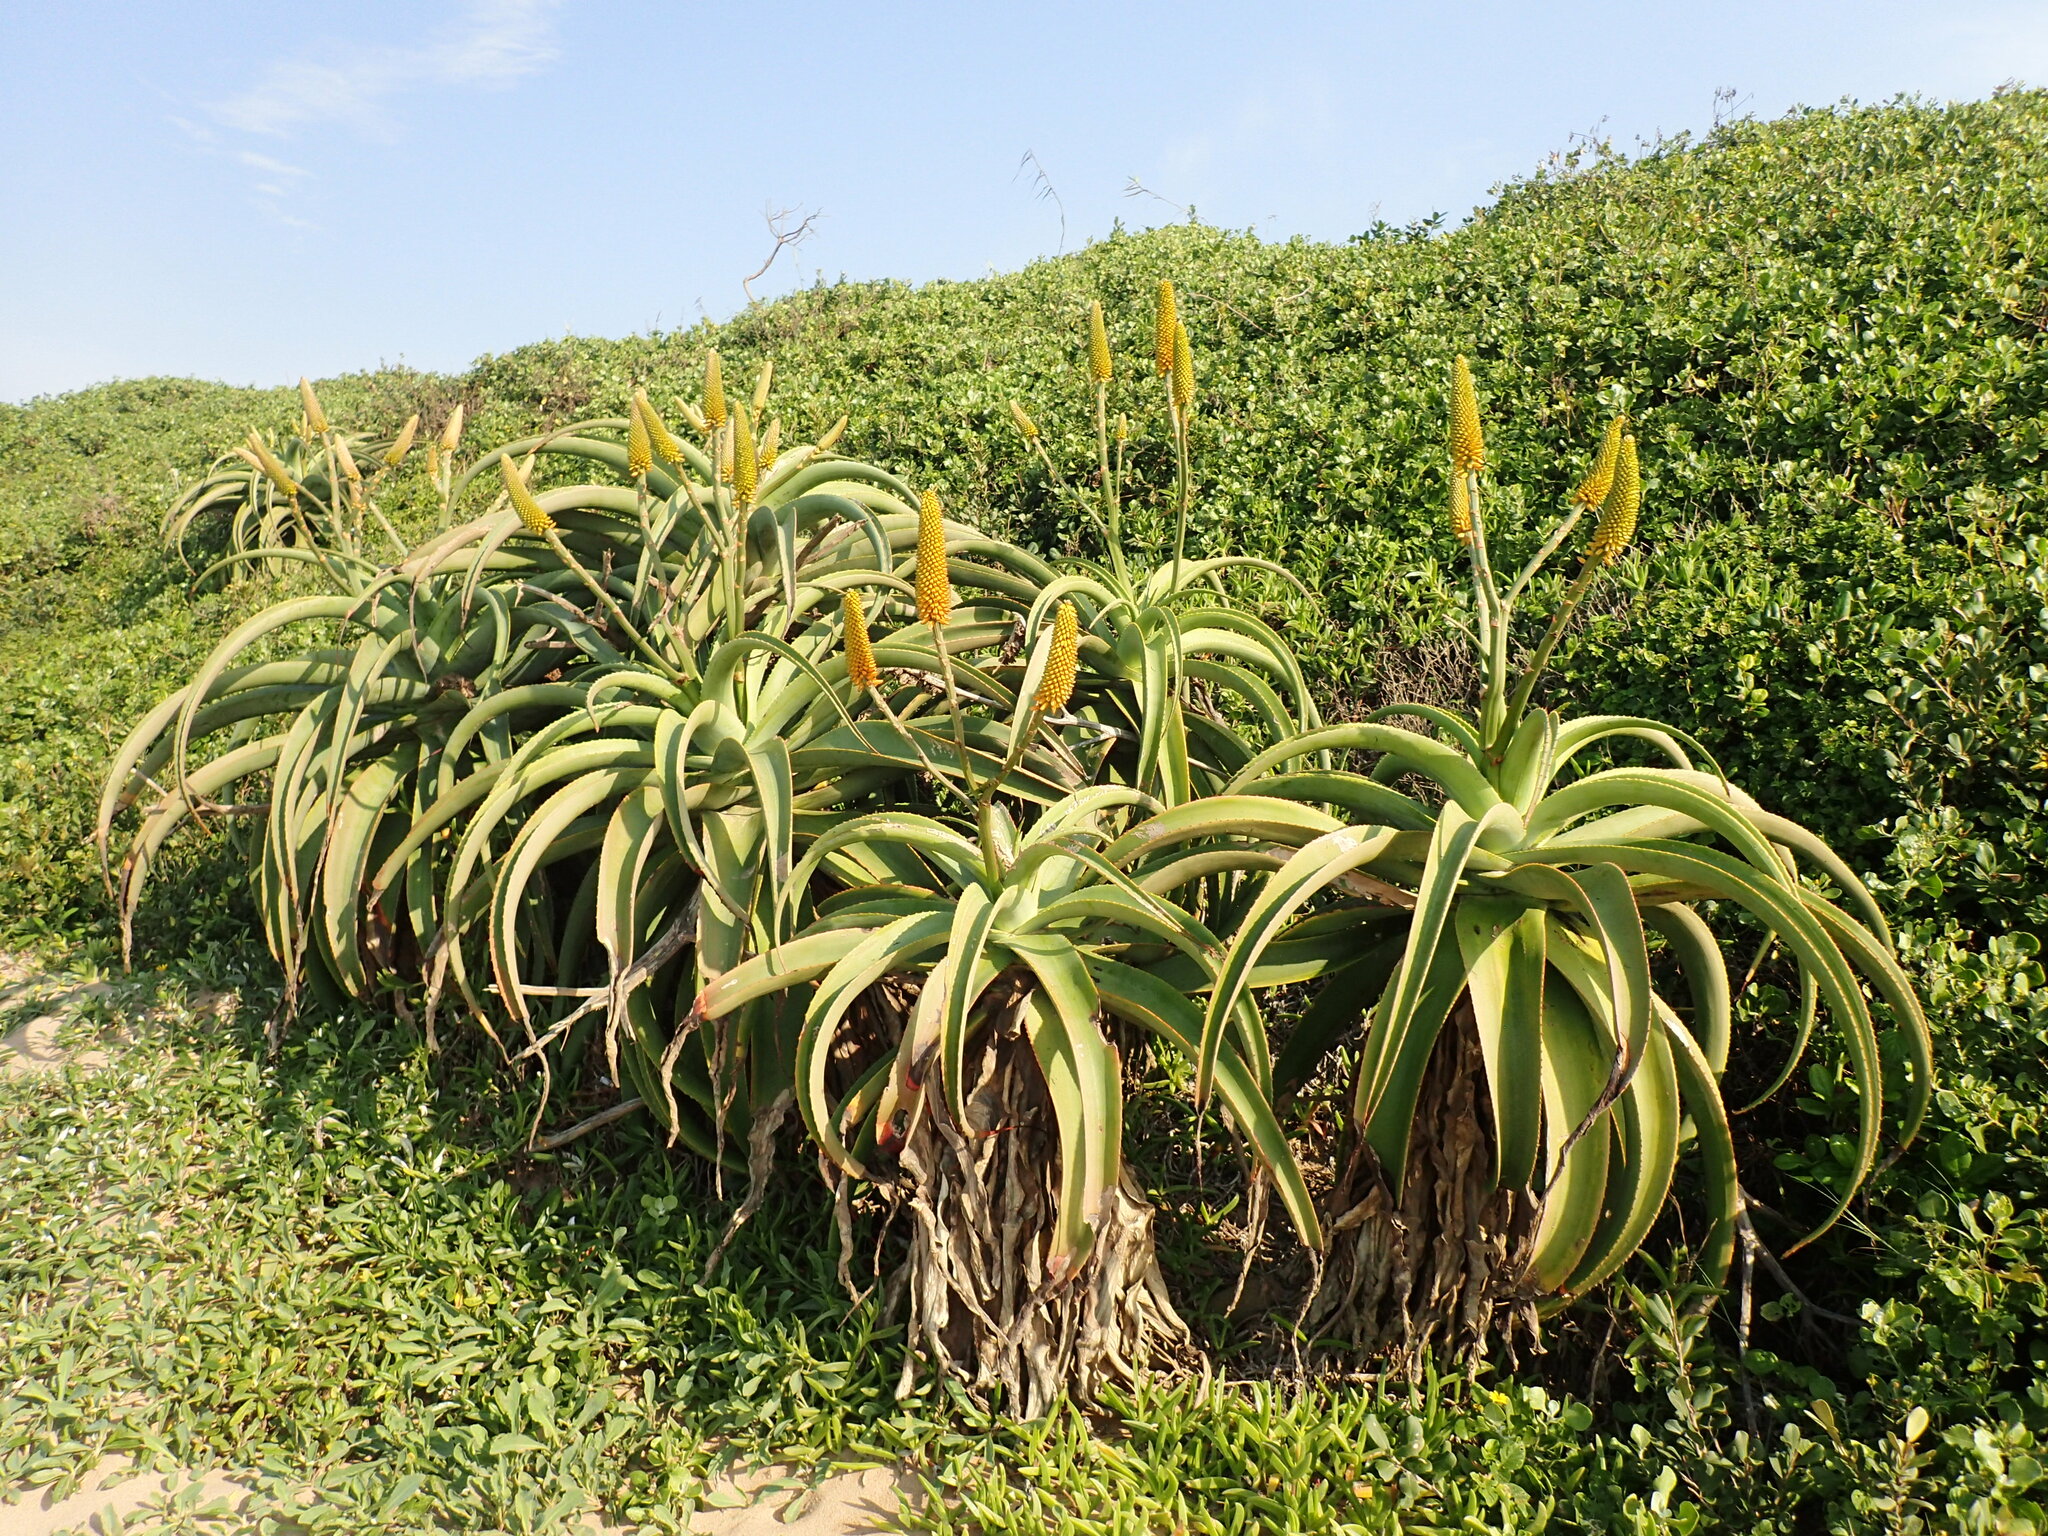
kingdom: Plantae
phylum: Tracheophyta
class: Liliopsida
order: Asparagales
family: Asphodelaceae
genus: Aloe
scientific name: Aloe thraskii
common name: Coast aloe
